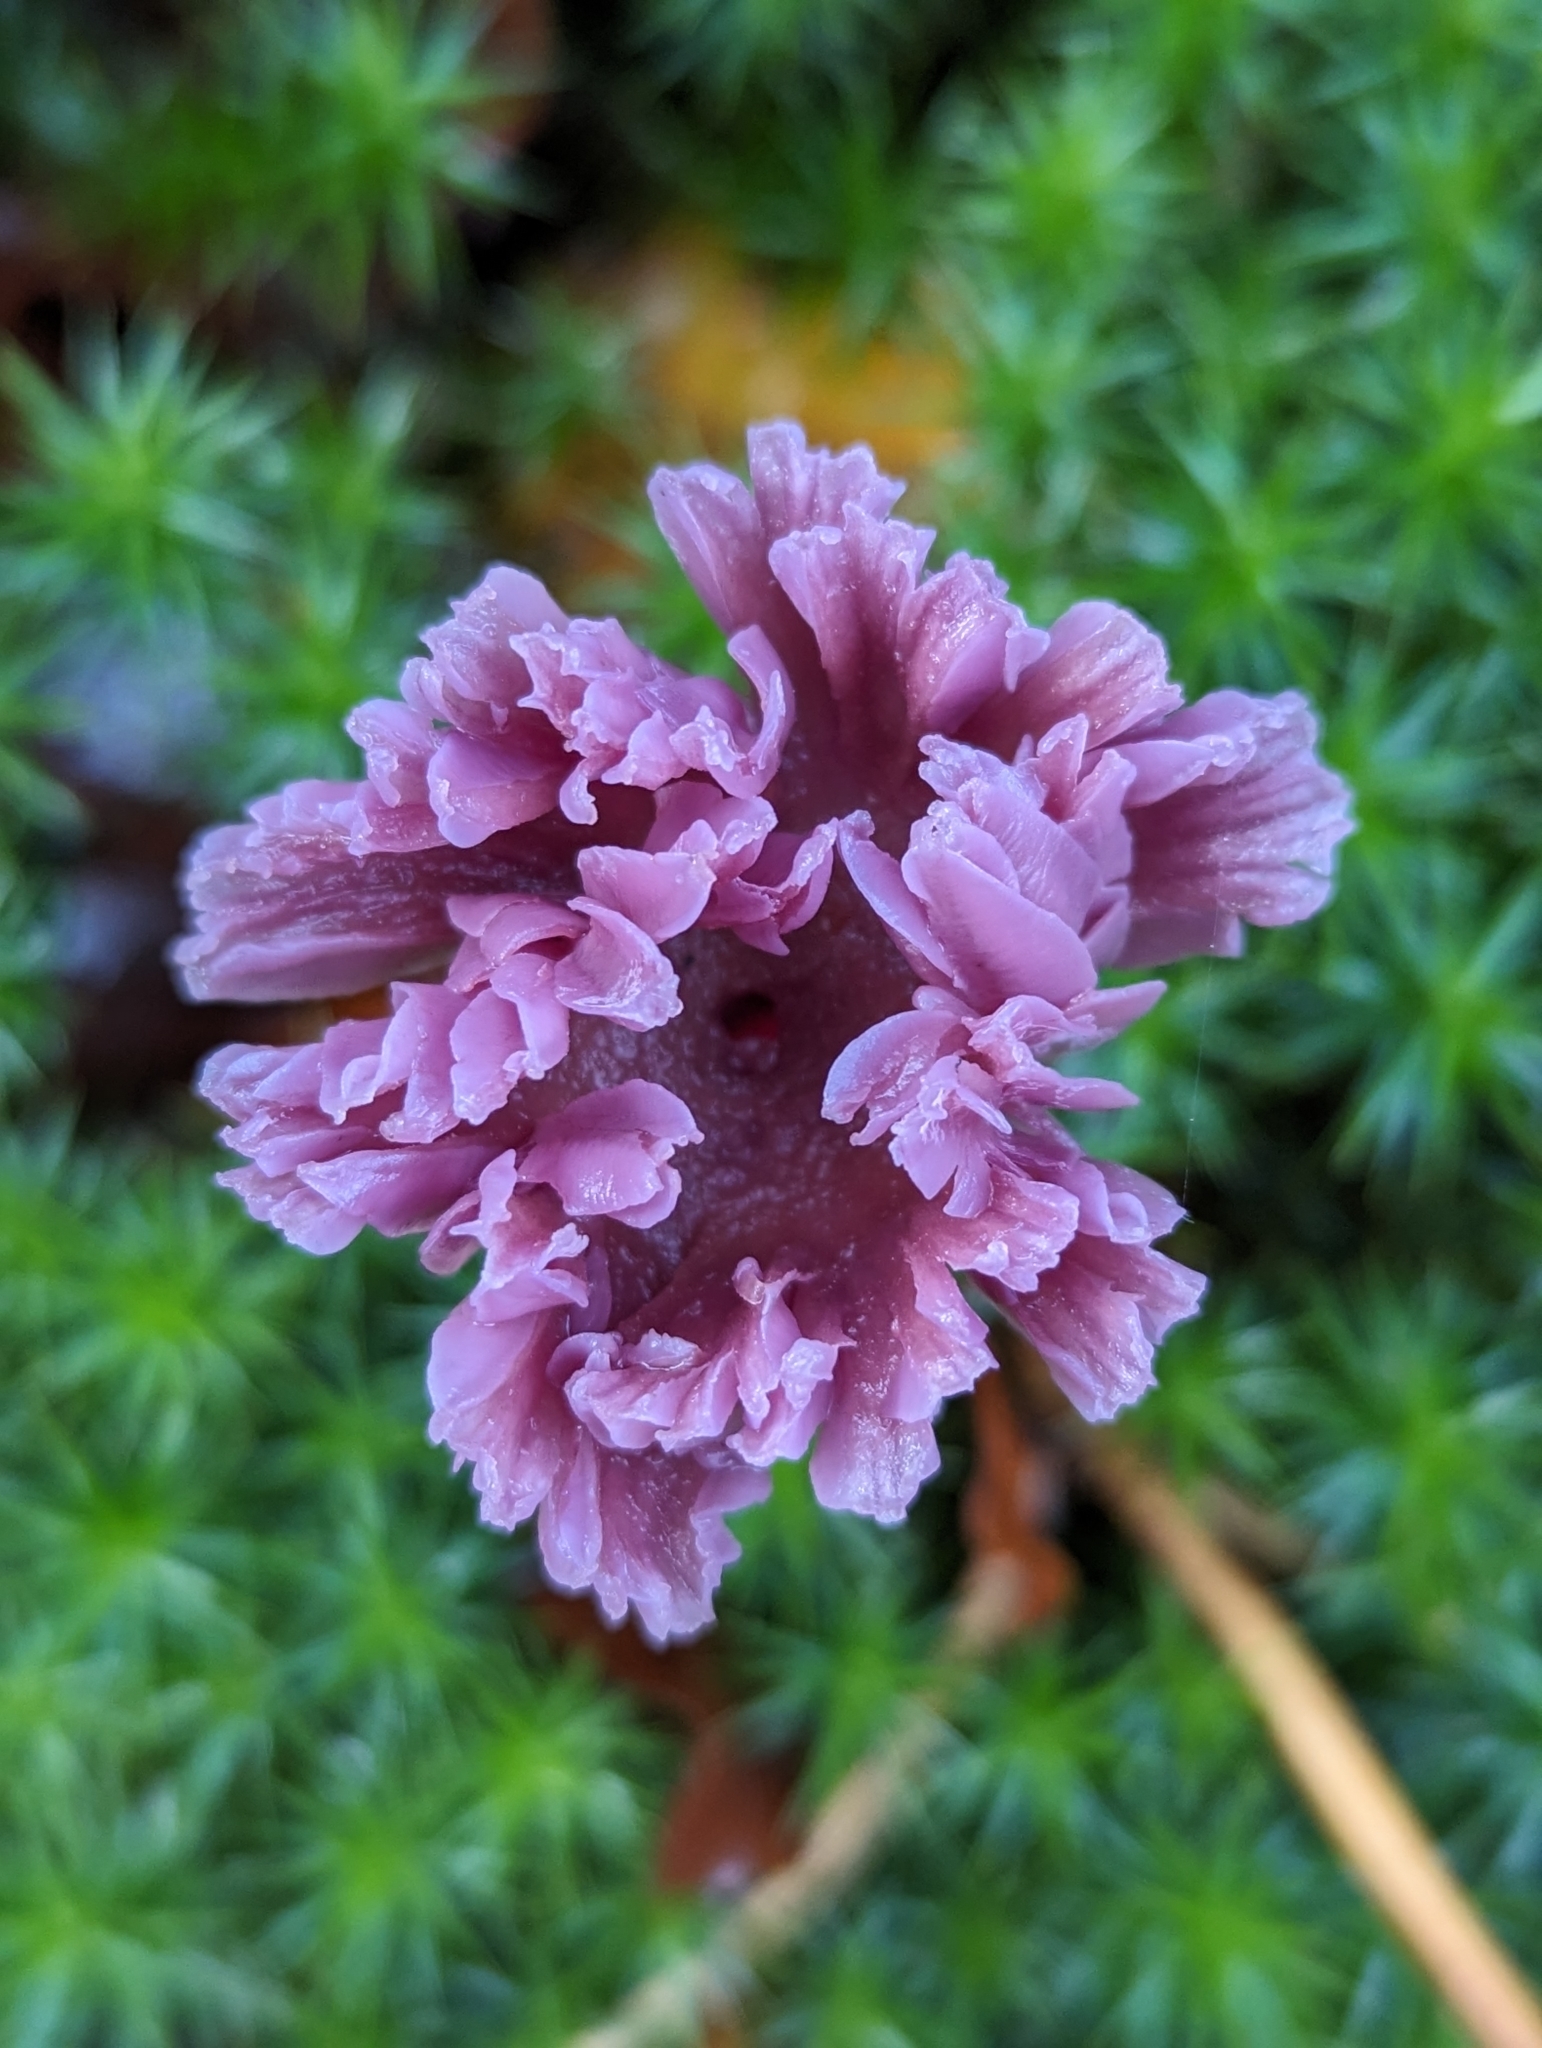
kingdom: Fungi
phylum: Basidiomycota
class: Agaricomycetes
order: Agaricales
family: Hydnangiaceae
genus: Laccaria
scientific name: Laccaria amethystina
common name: Amethyst deceiver
